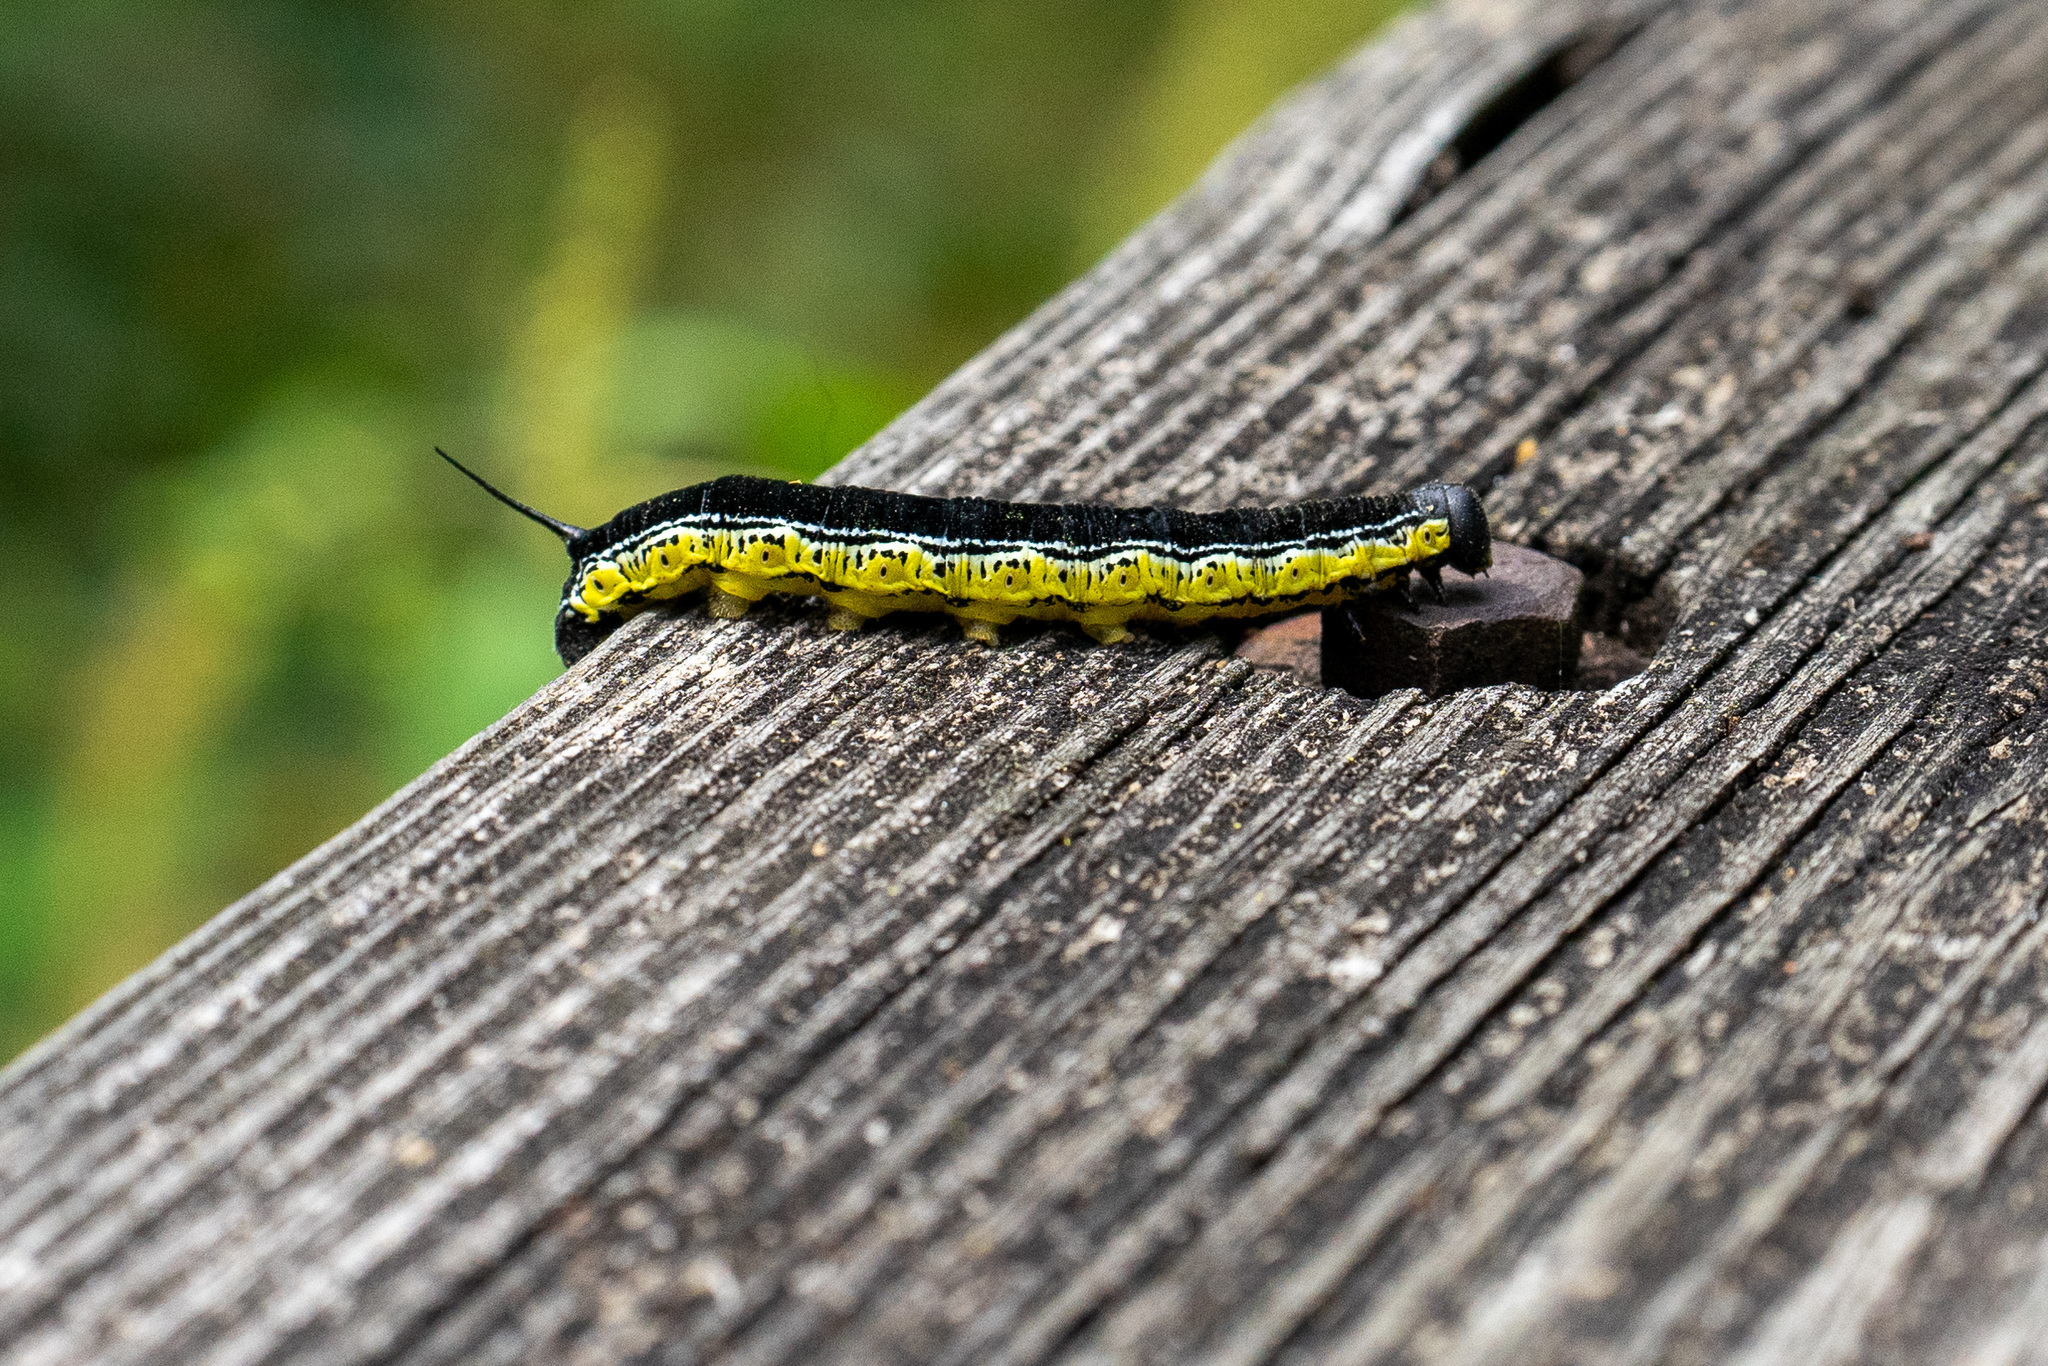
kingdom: Animalia
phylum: Arthropoda
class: Insecta
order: Lepidoptera
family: Sphingidae
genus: Ceratomia
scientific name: Ceratomia catalpae
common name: Catalpa hornworm
